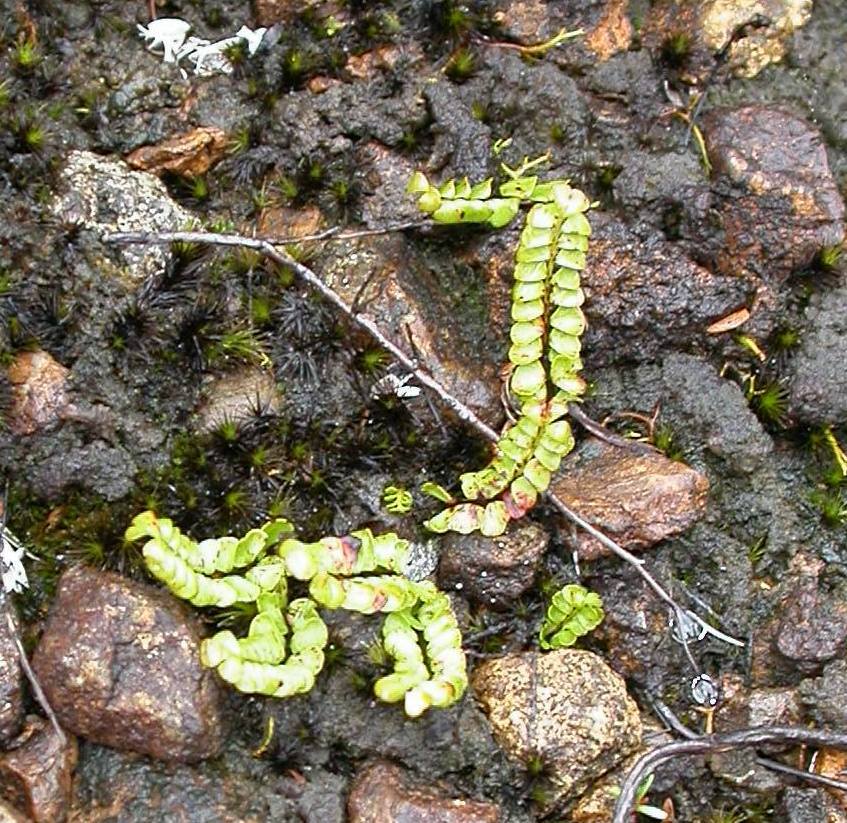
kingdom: Plantae
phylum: Tracheophyta
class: Polypodiopsida
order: Polypodiales
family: Lindsaeaceae
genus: Lindsaea
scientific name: Lindsaea linearis
